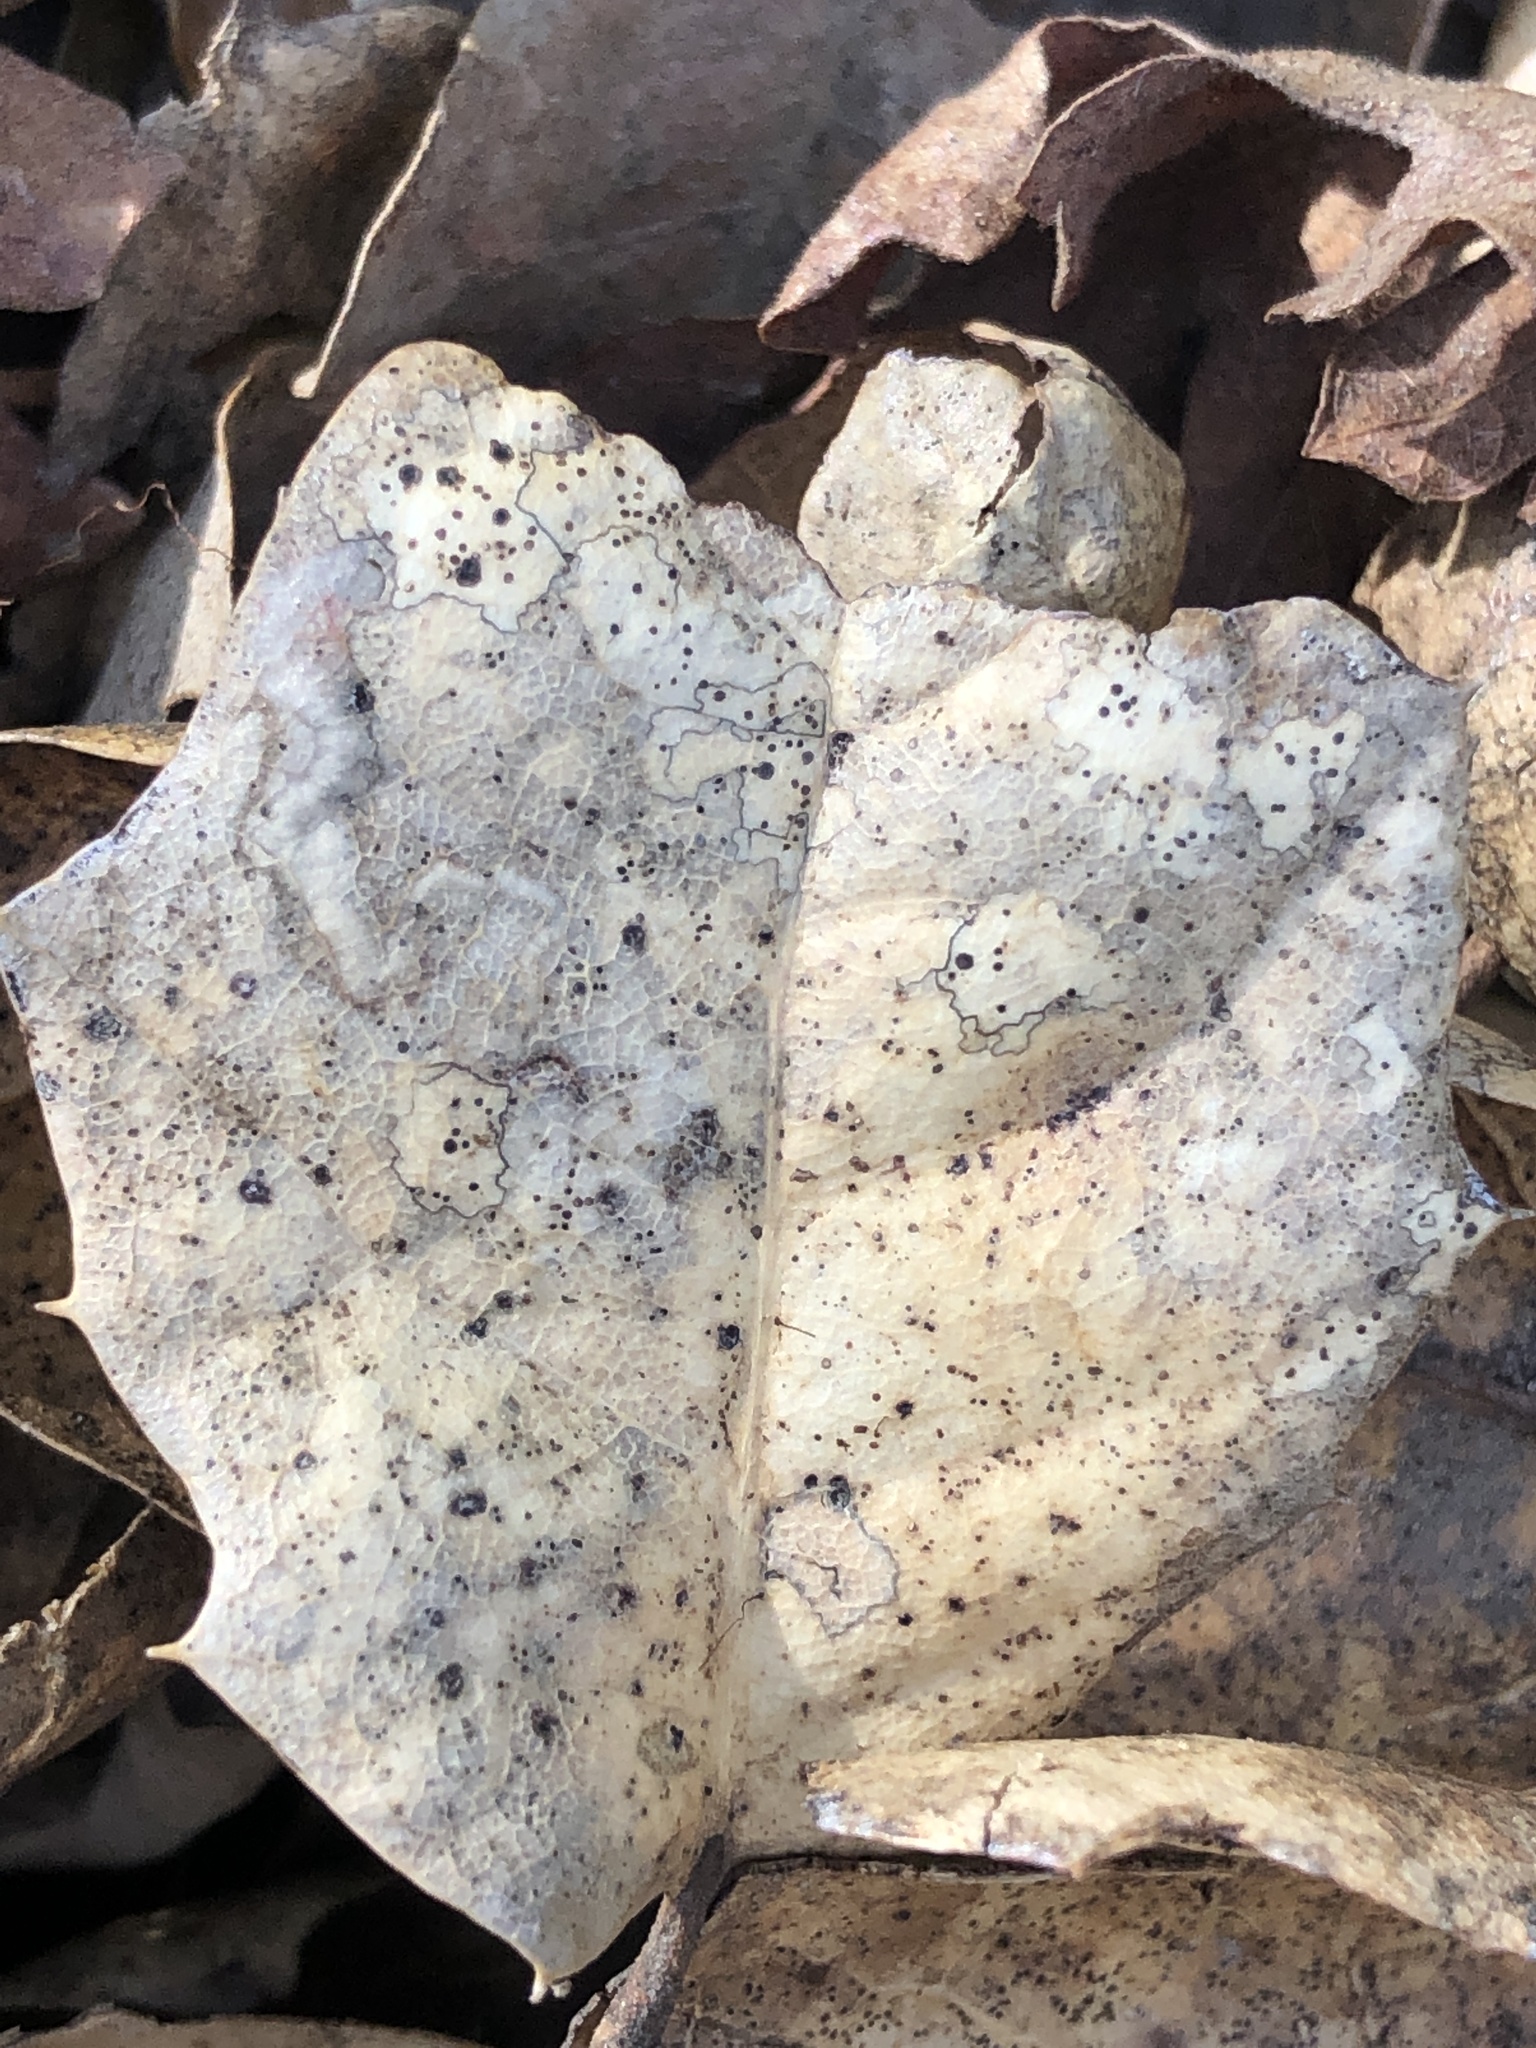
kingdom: Fungi
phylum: Ascomycota
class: Leotiomycetes
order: Rhytismatales
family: Rhytismataceae
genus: Coccomyces
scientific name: Coccomyces dentatus
